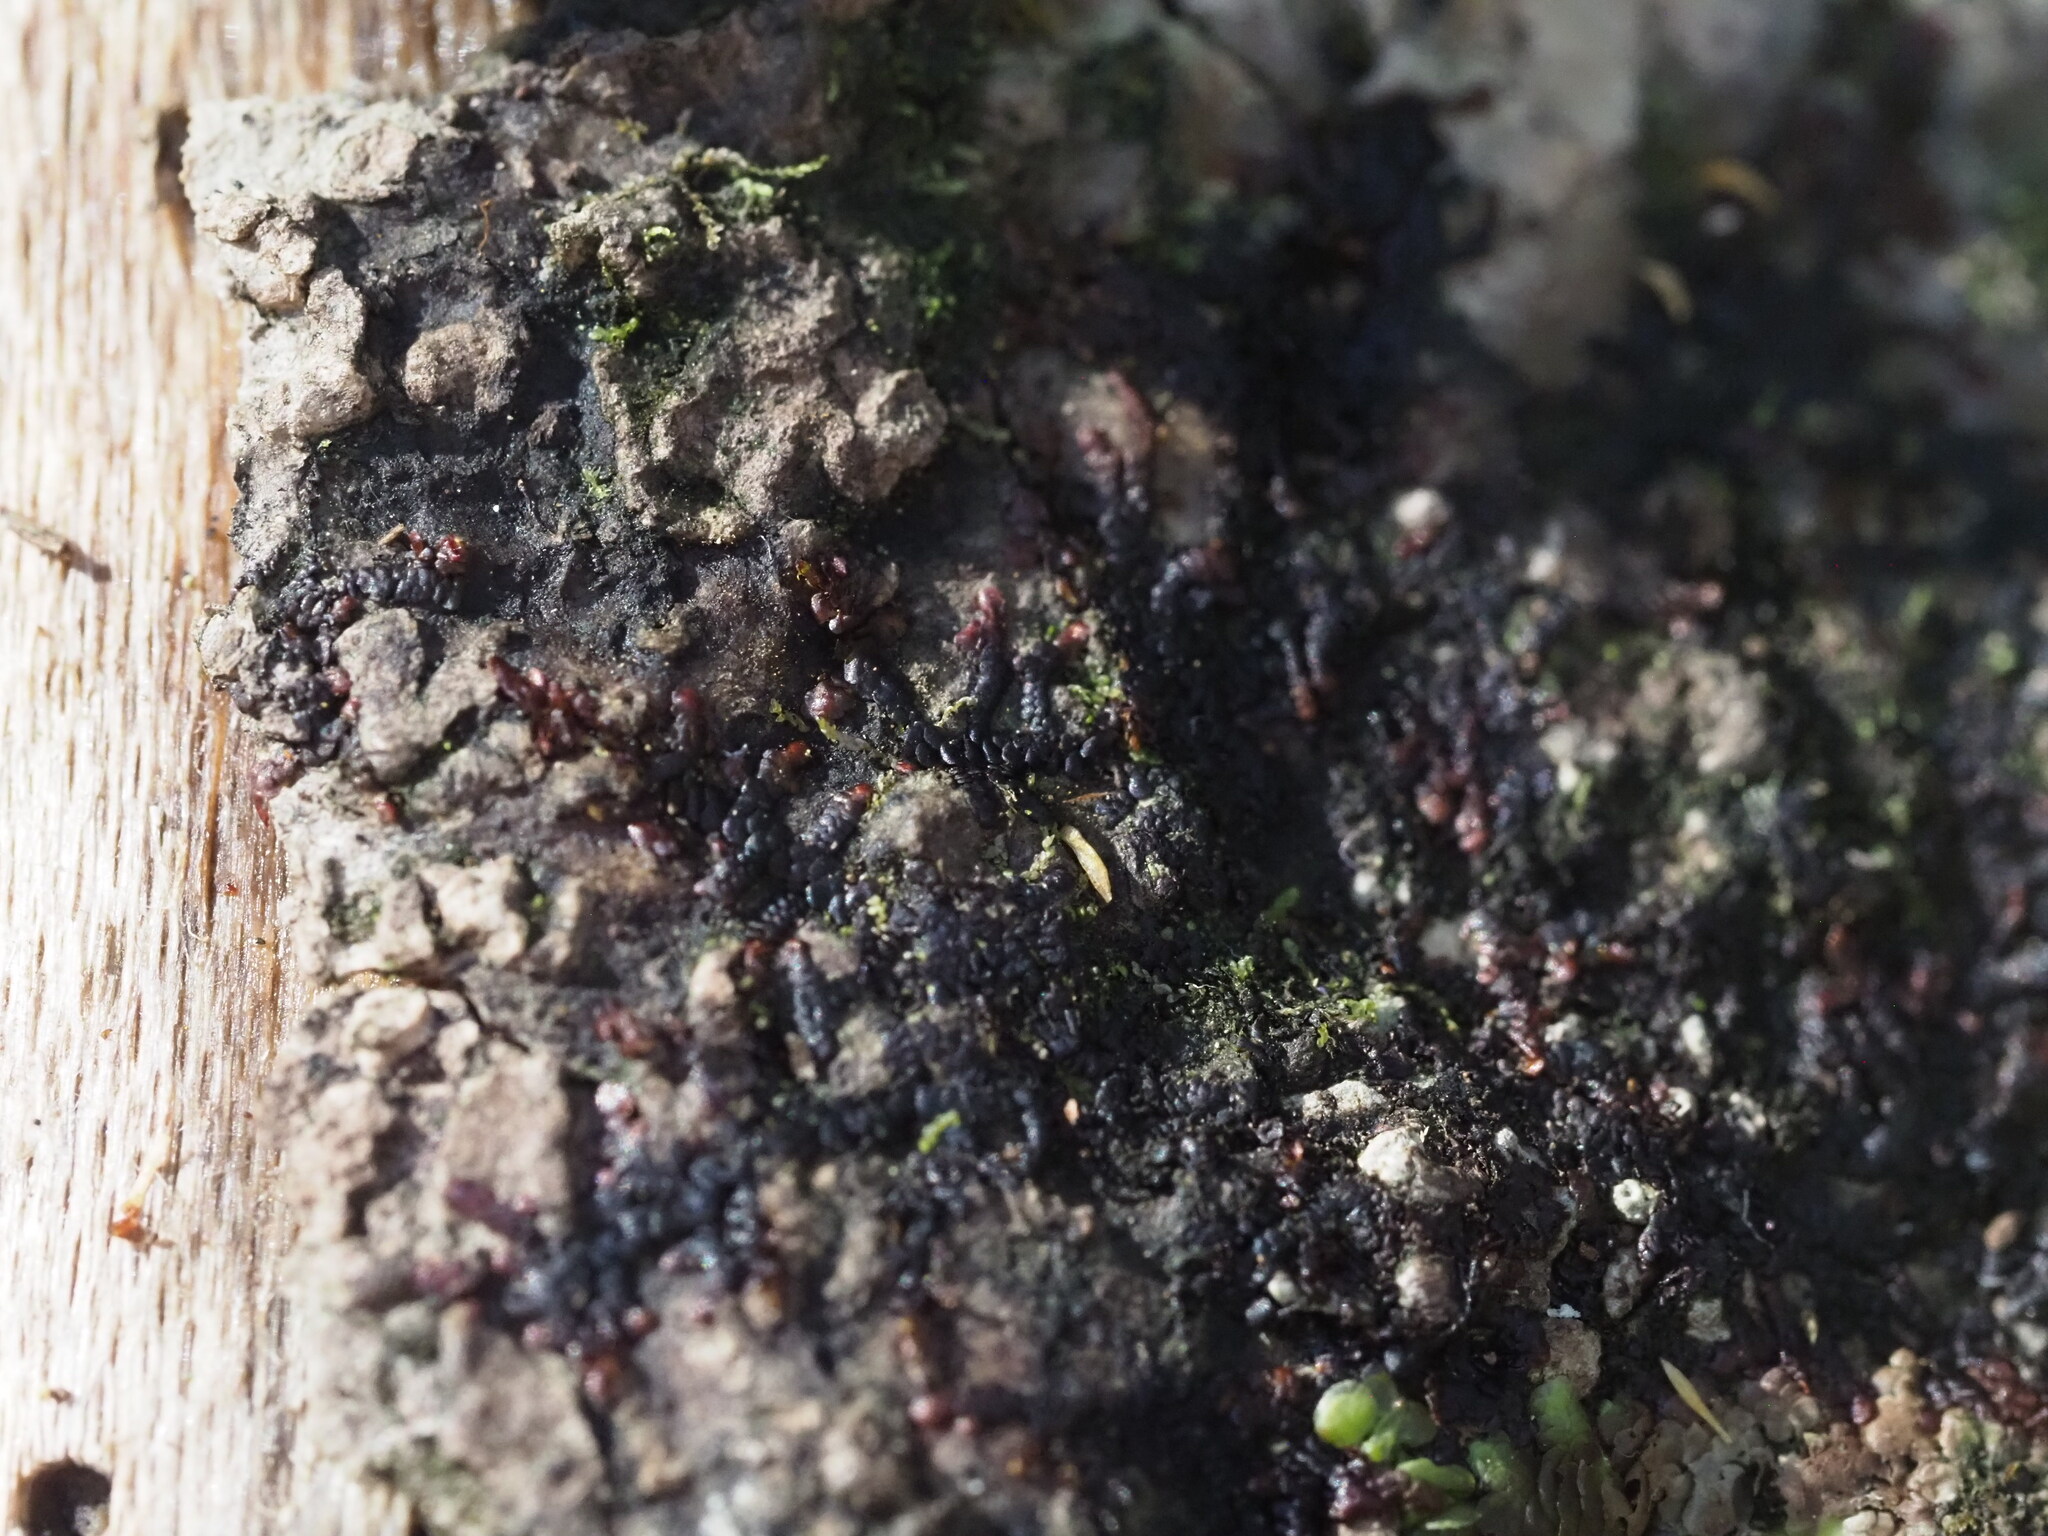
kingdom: Plantae
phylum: Marchantiophyta
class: Jungermanniopsida
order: Porellales
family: Frullaniaceae
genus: Frullania
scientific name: Frullania meyeniana
